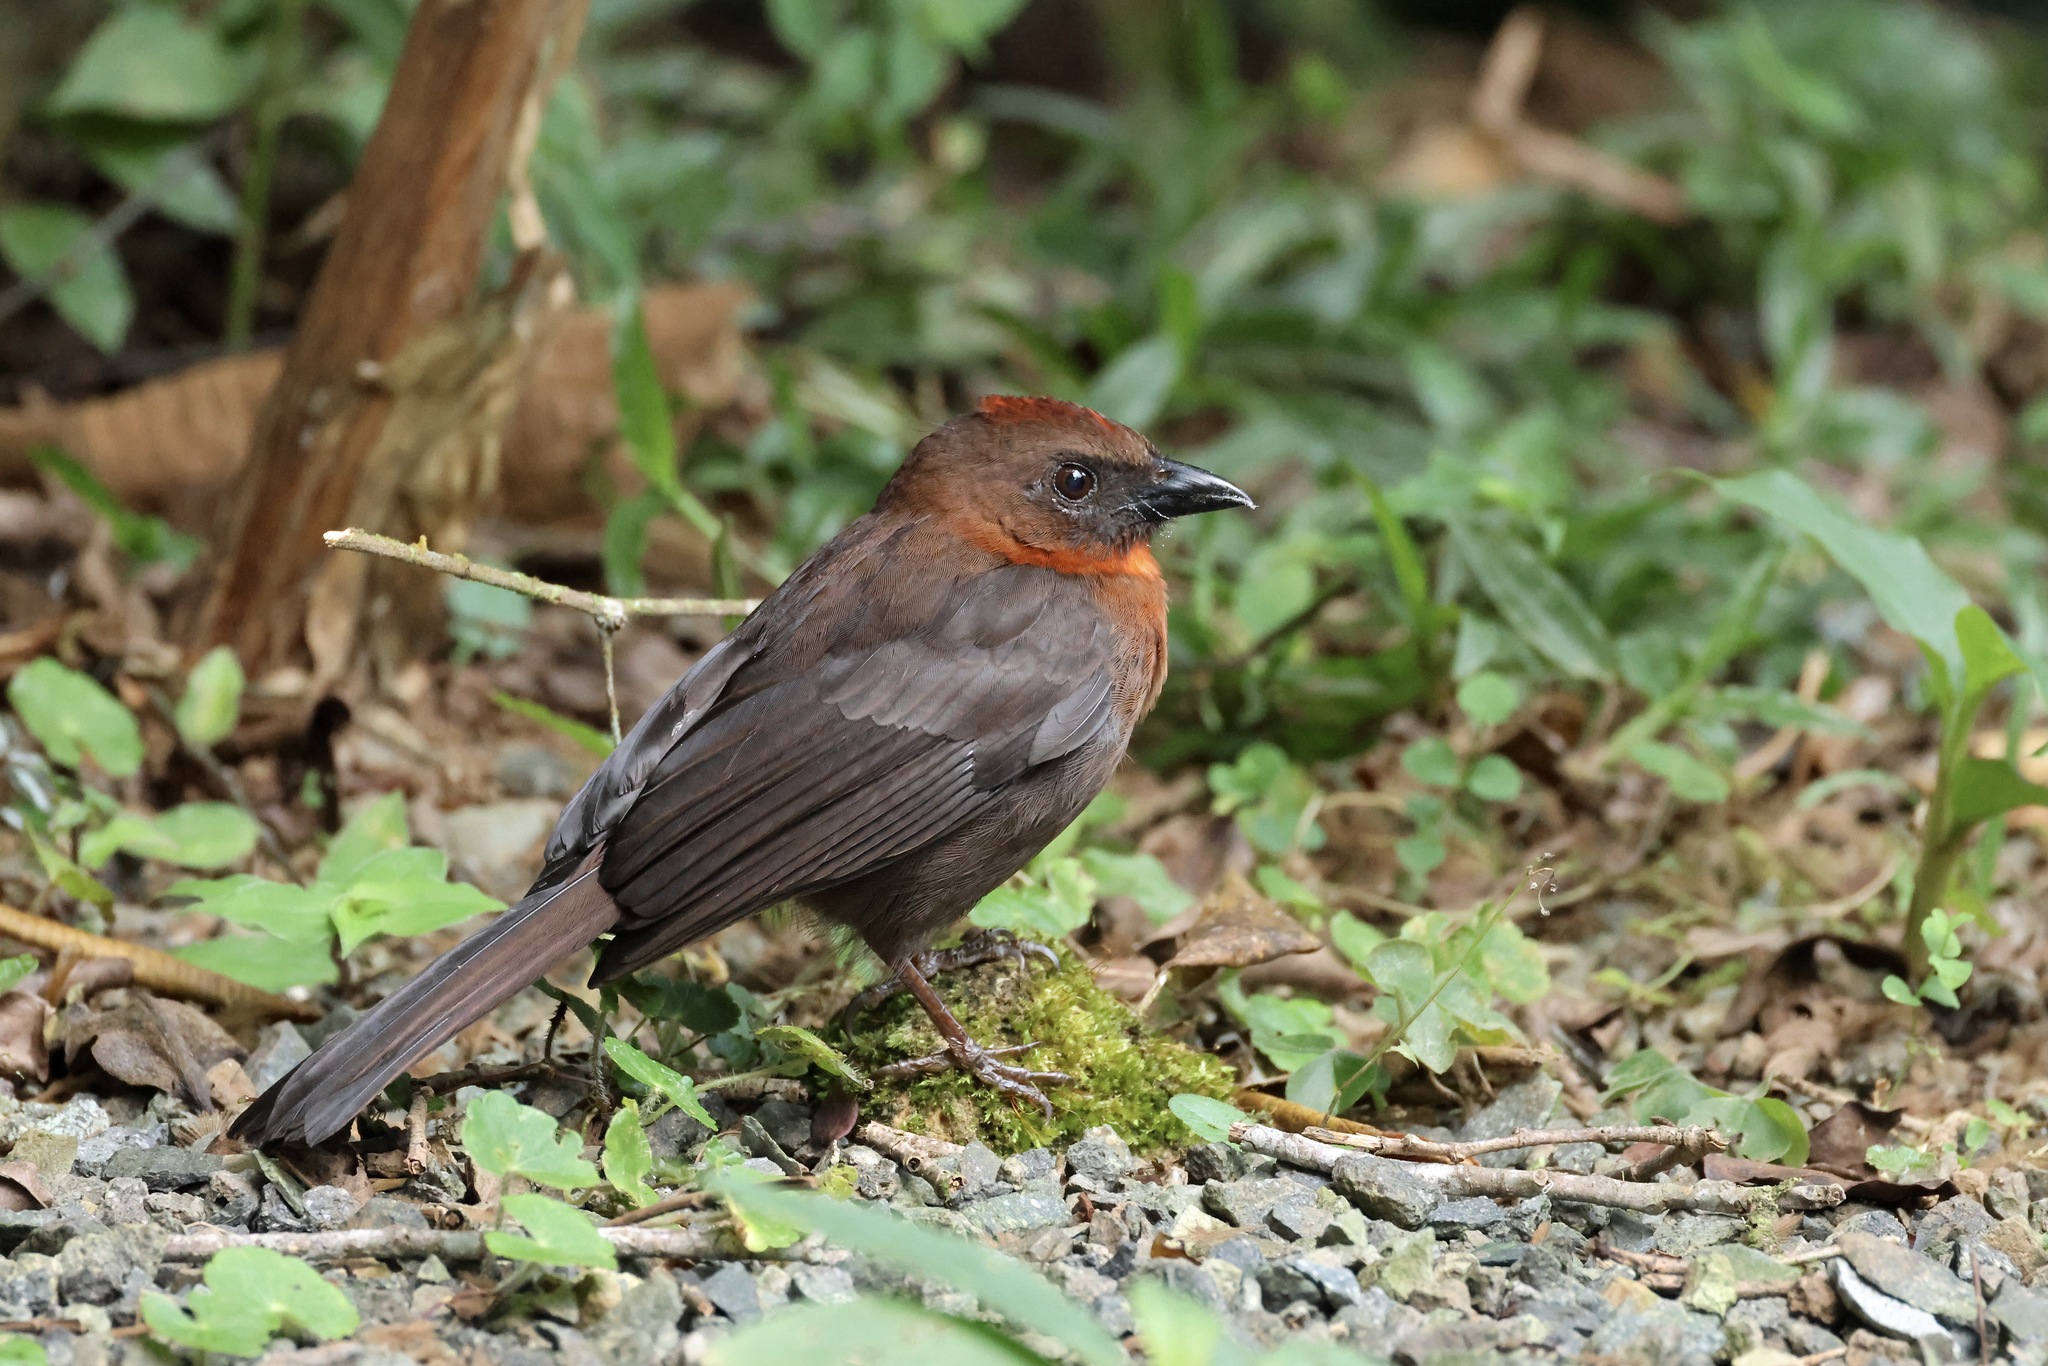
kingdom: Animalia
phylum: Chordata
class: Aves
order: Passeriformes
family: Cardinalidae
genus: Habia
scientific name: Habia fuscicauda
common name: Red-throated ant-tanager
